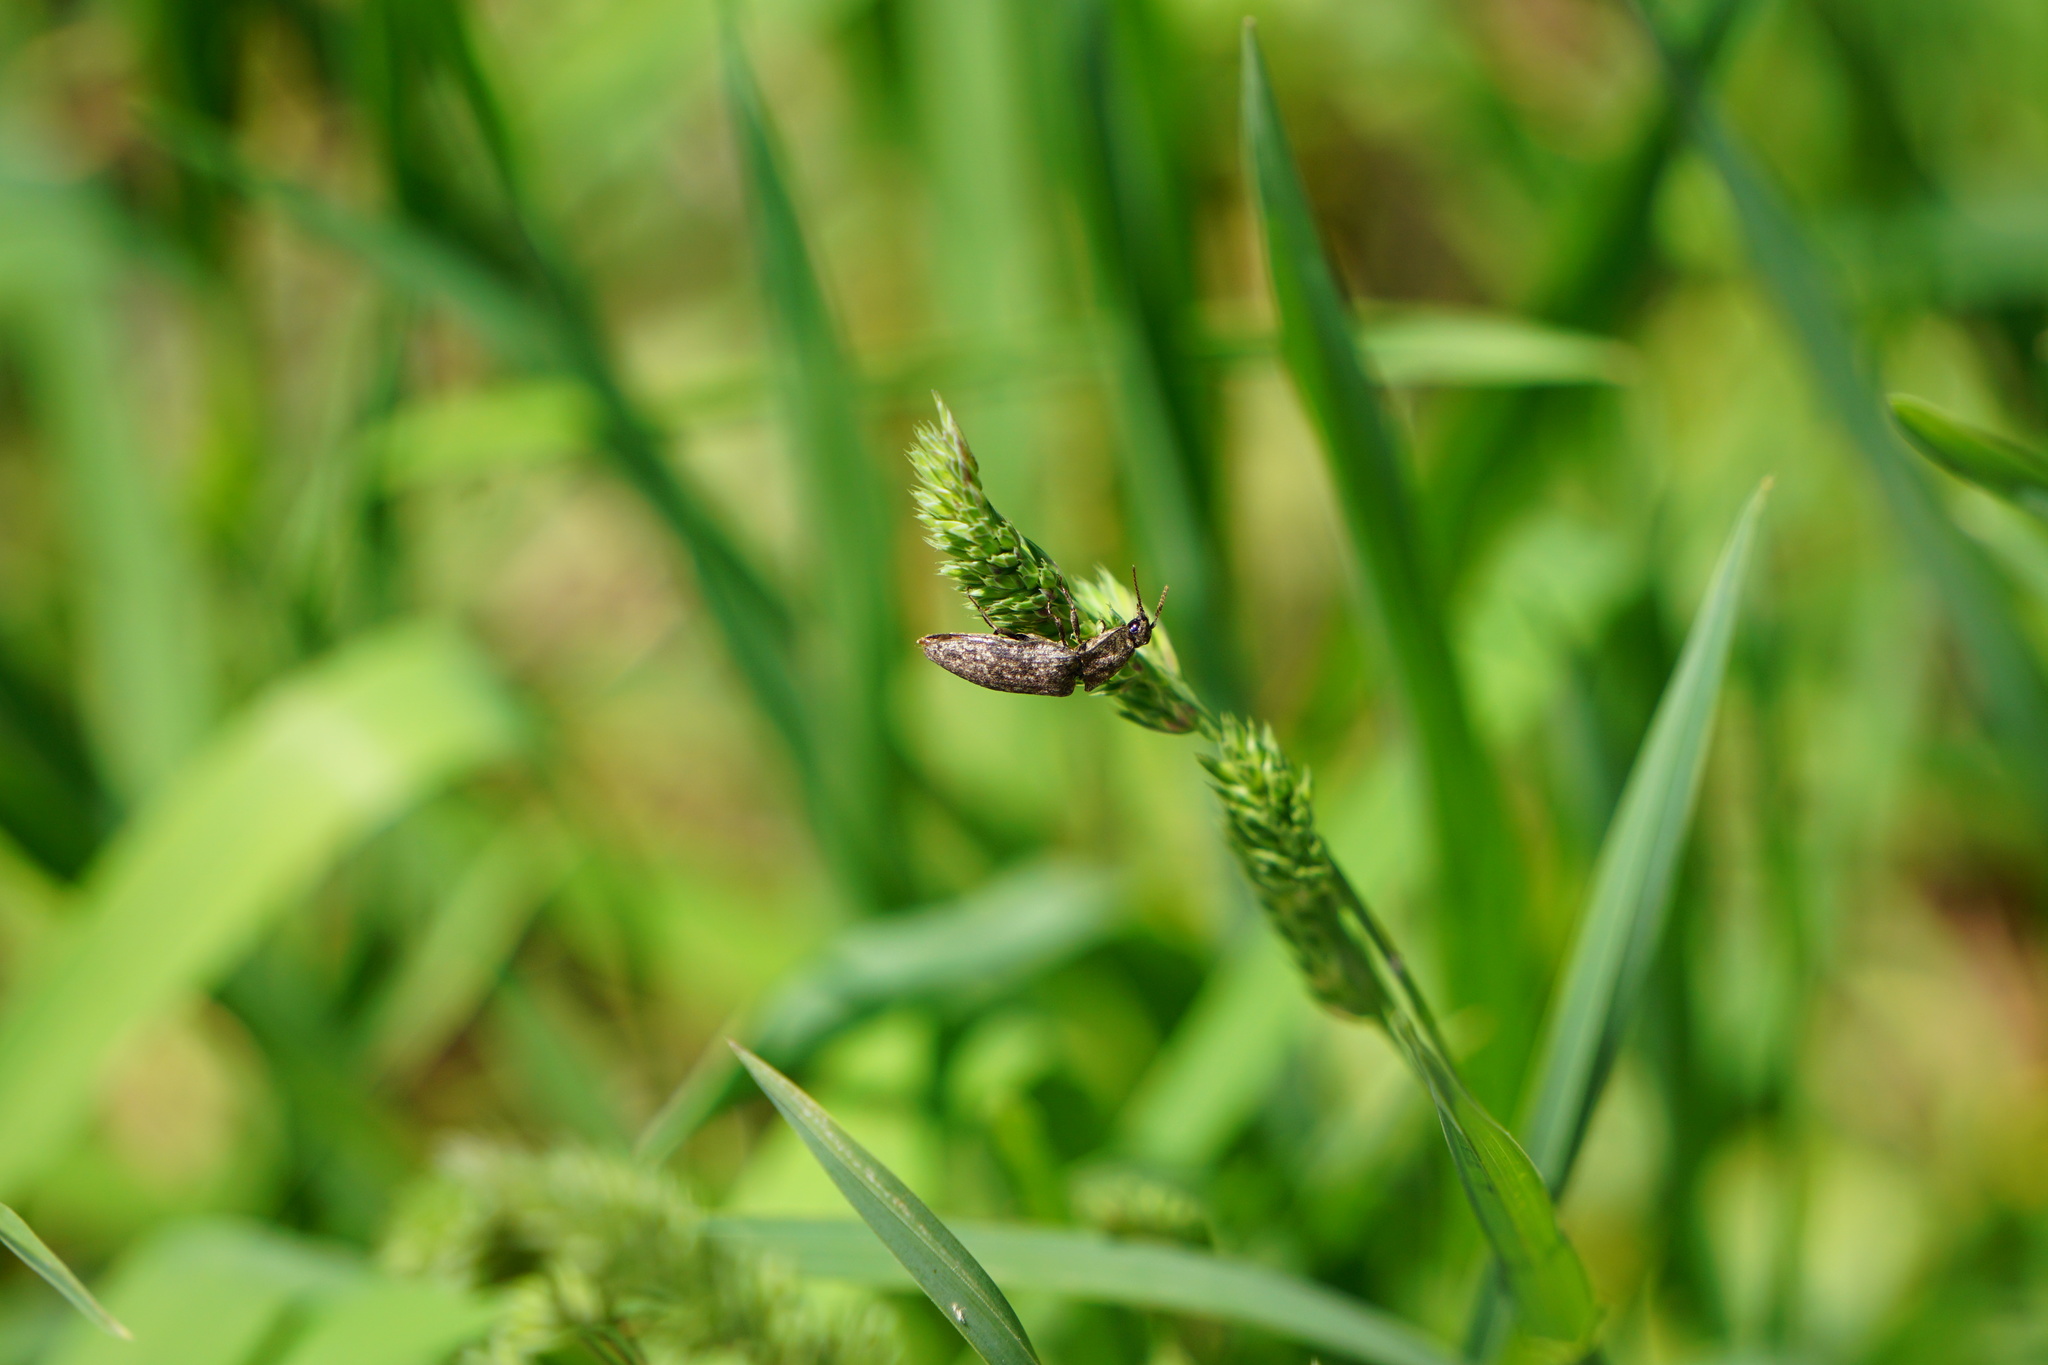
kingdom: Animalia
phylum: Arthropoda
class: Insecta
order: Coleoptera
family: Elateridae
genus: Agrypnus
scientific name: Agrypnus murinus
